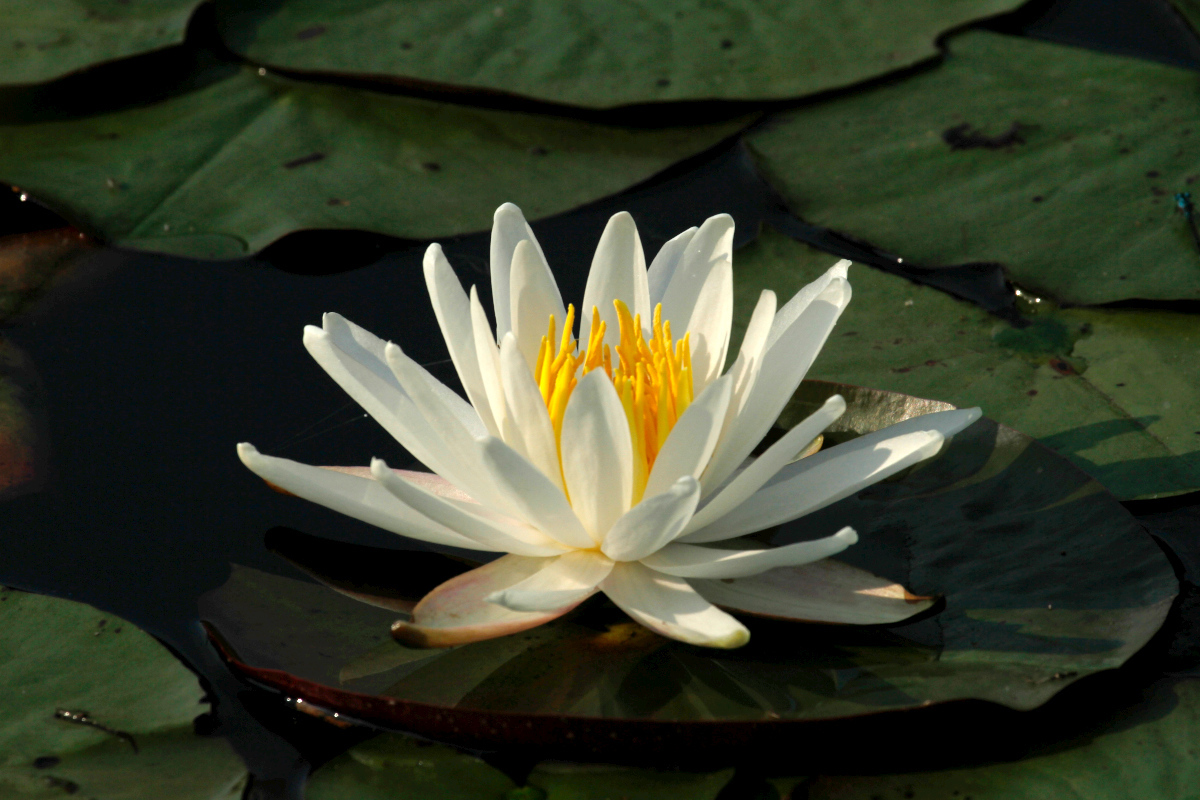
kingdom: Plantae
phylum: Tracheophyta
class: Magnoliopsida
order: Nymphaeales
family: Nymphaeaceae
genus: Nymphaea
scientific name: Nymphaea odorata
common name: Fragrant water-lily
